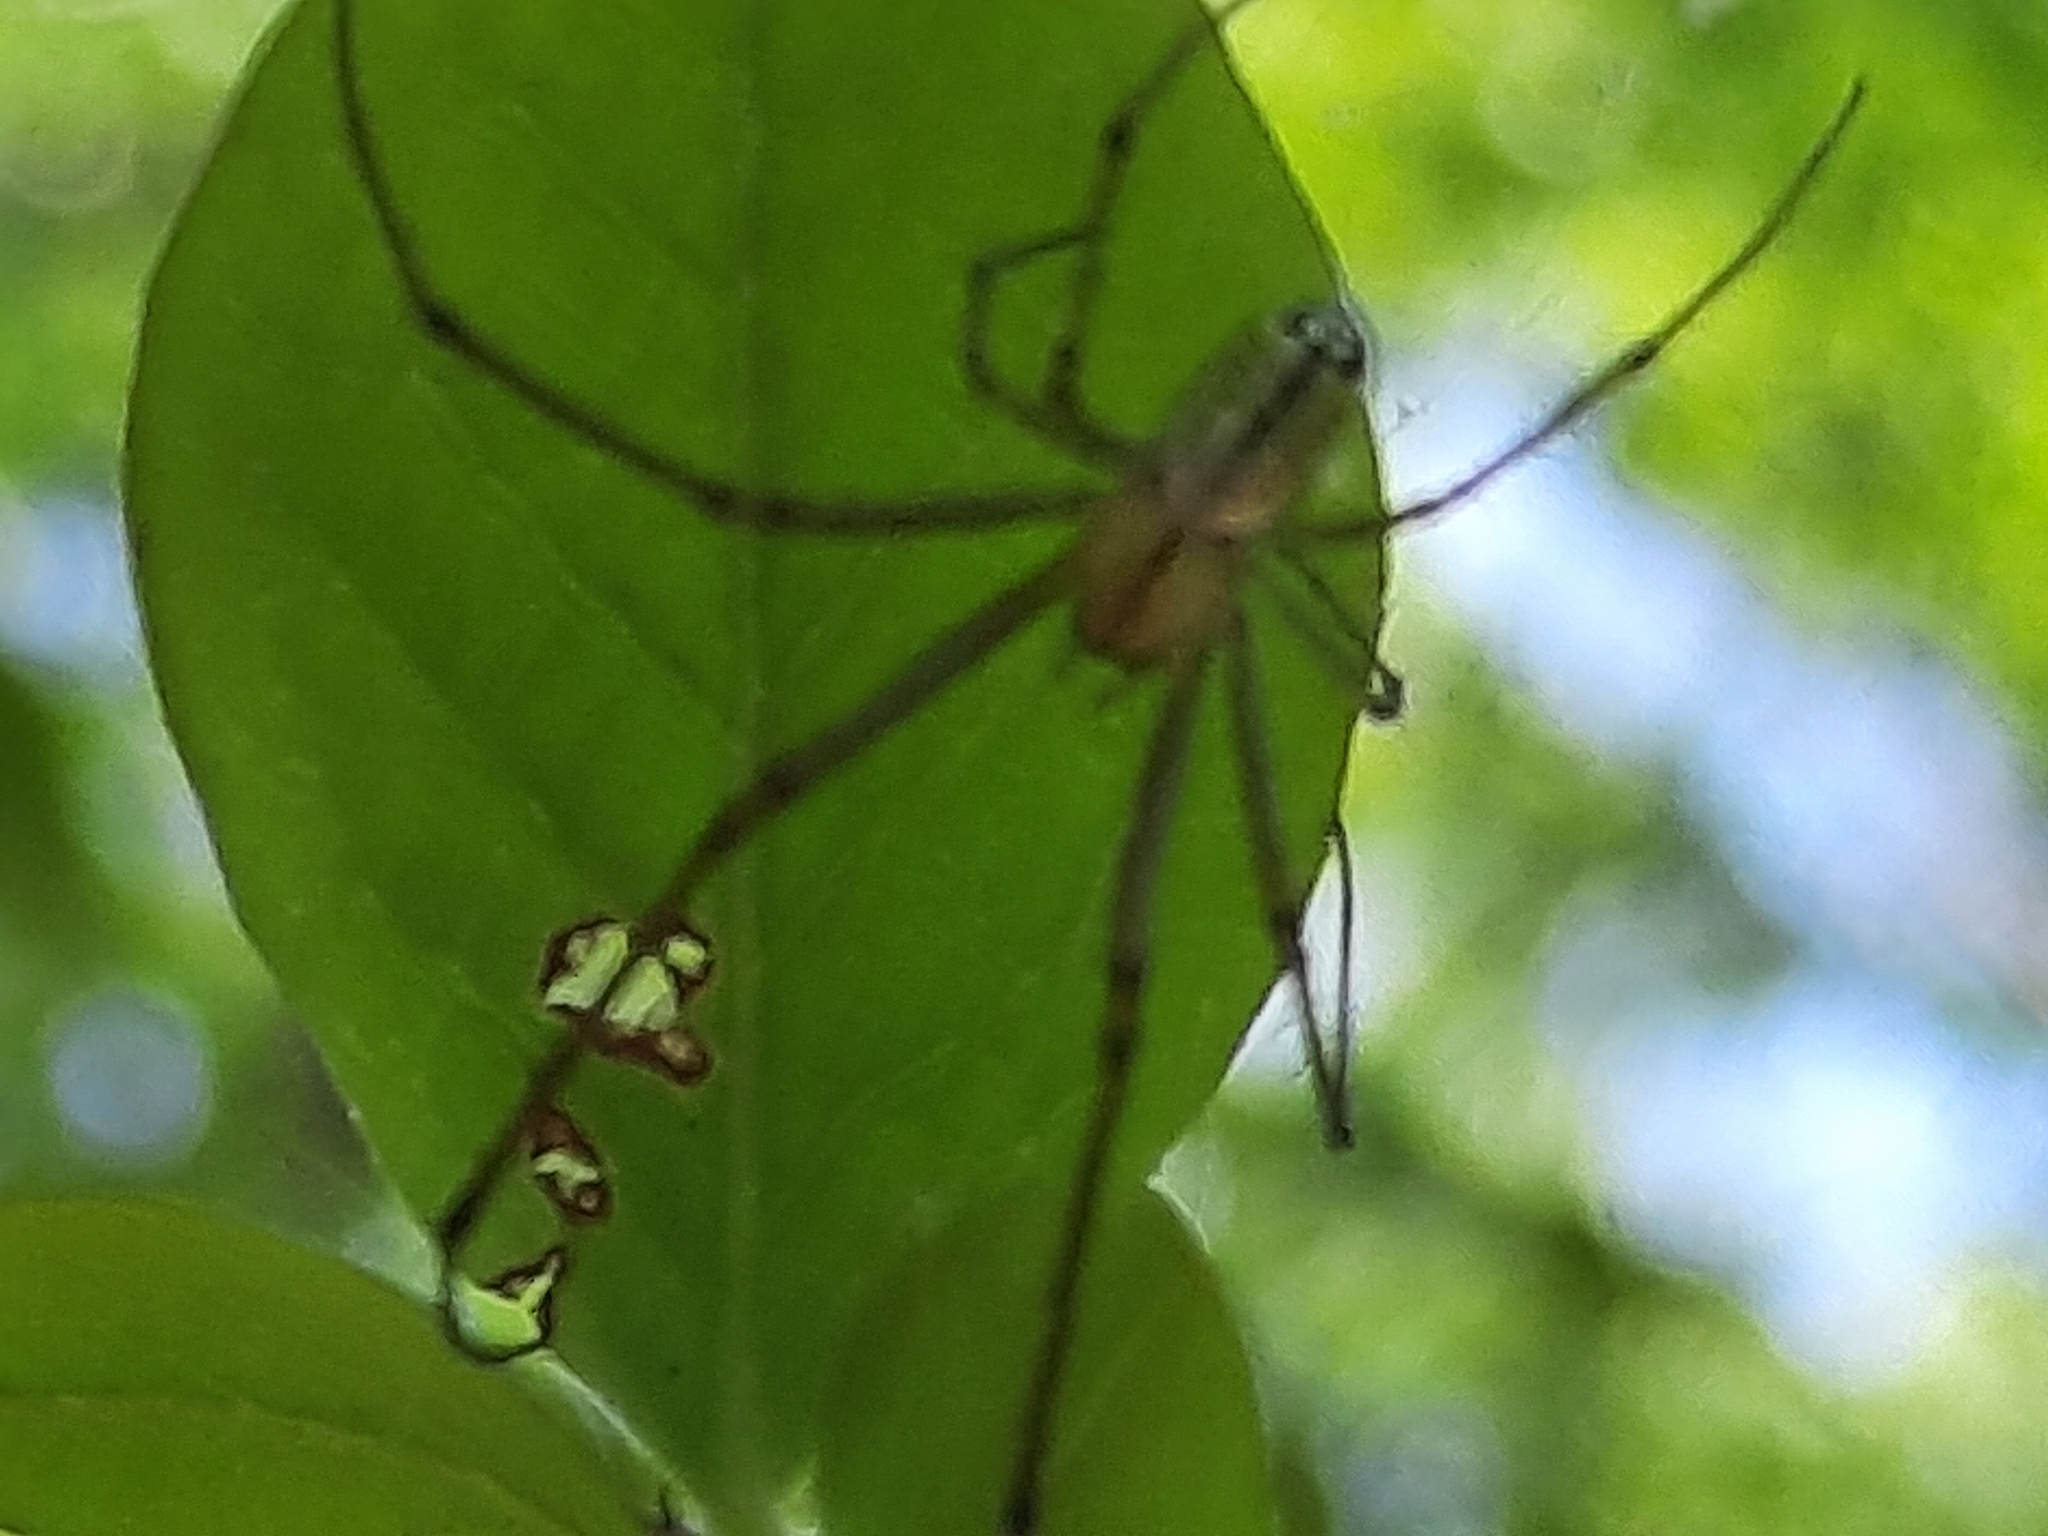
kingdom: Animalia
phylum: Arthropoda
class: Arachnida
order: Araneae
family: Tetragnathidae
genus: Leucauge
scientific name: Leucauge venusta
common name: Longjawed orb weavers
